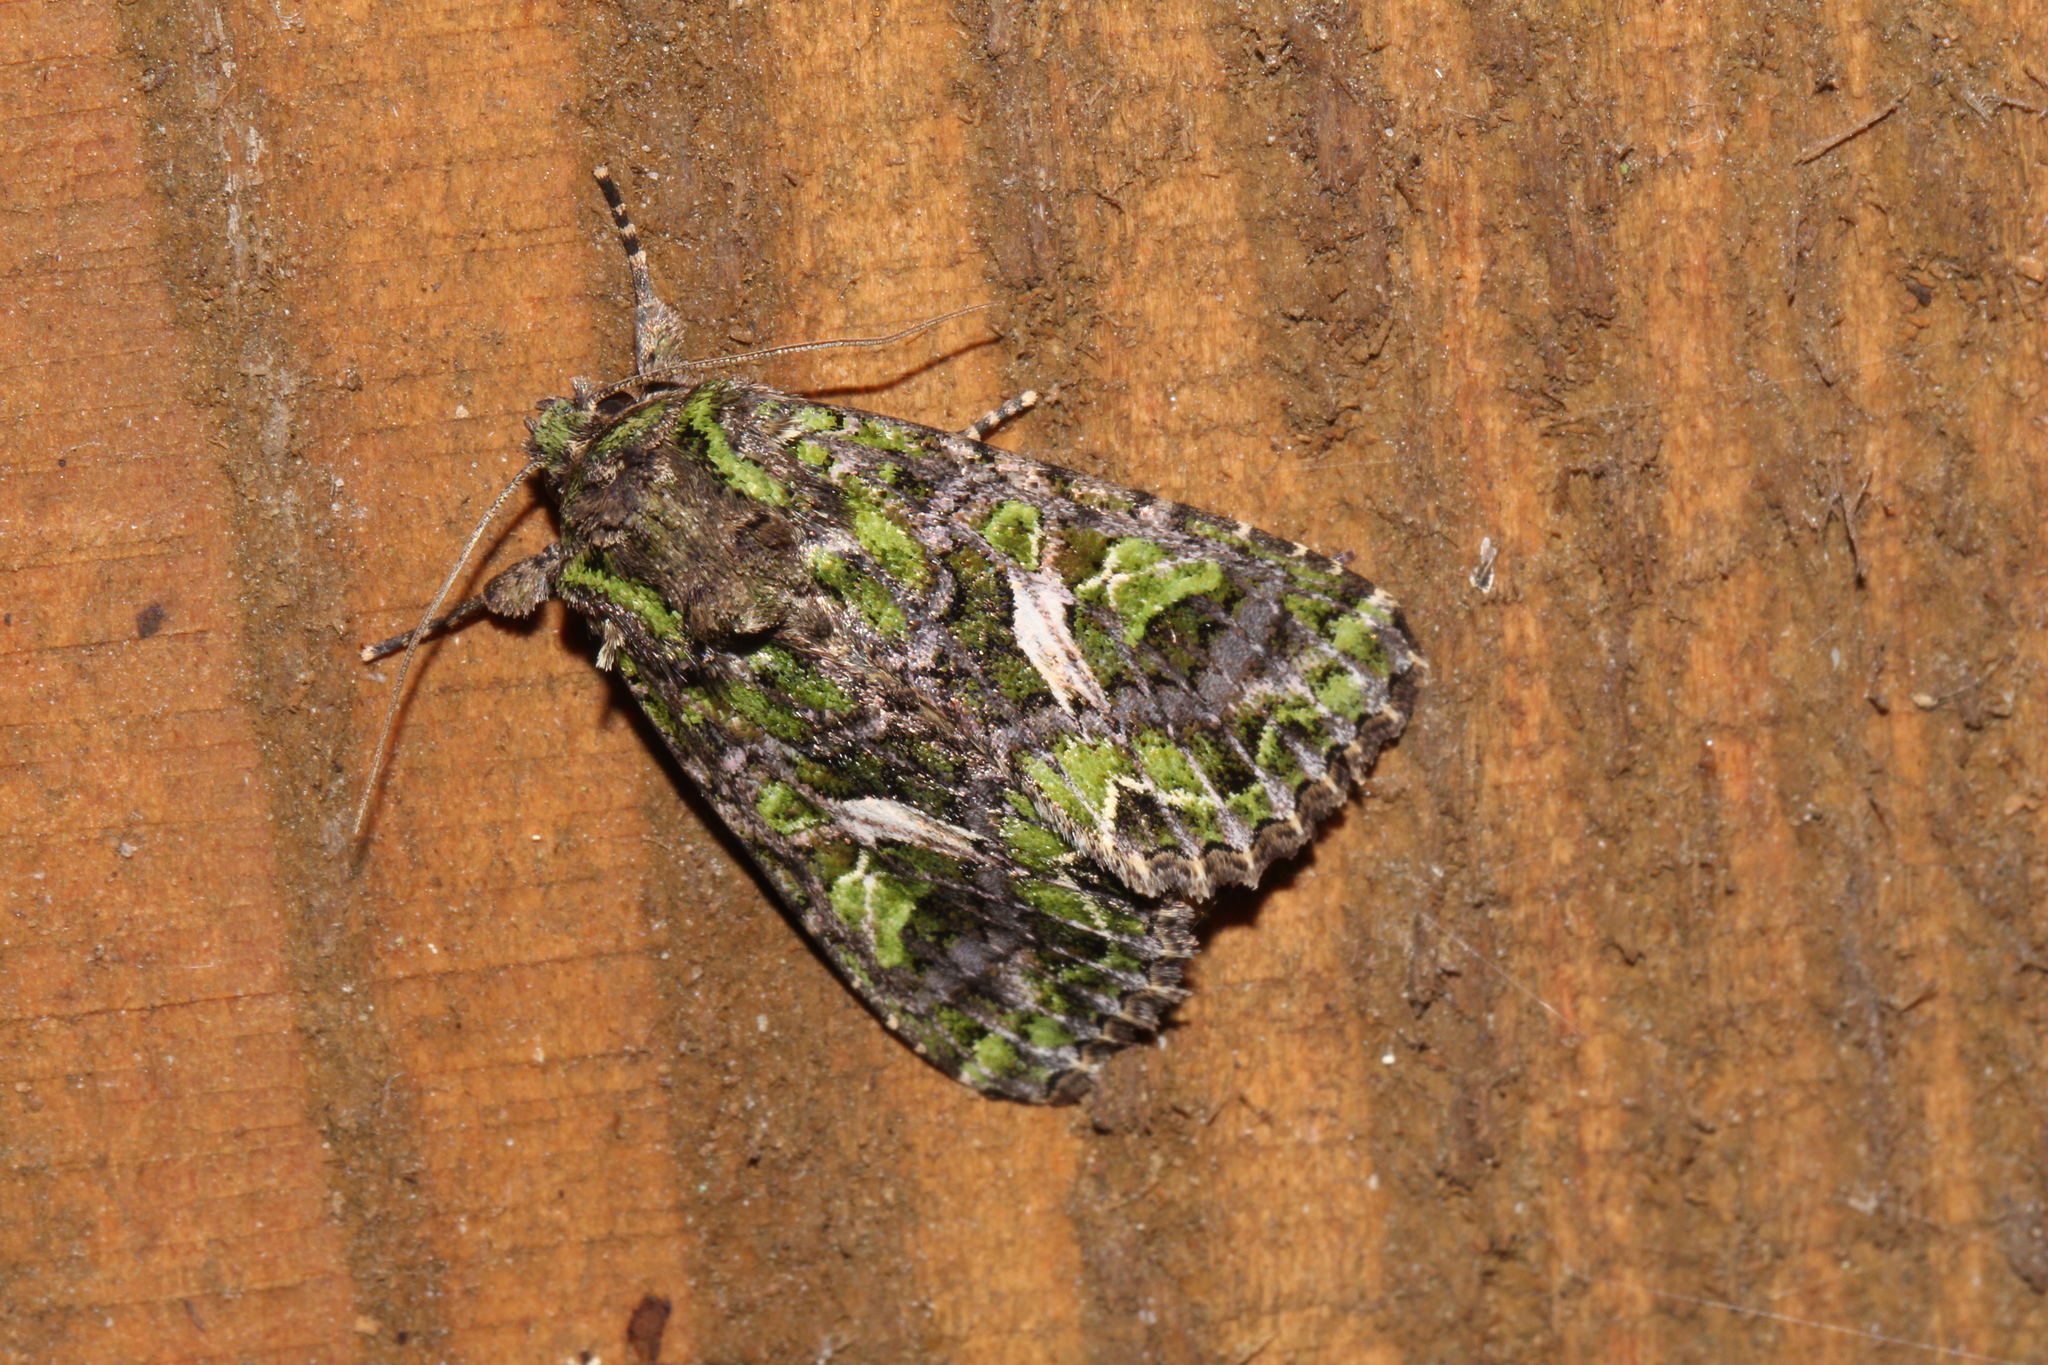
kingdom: Animalia
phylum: Arthropoda
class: Insecta
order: Lepidoptera
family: Noctuidae
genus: Trachea
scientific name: Trachea atriplicis
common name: Orache moth
